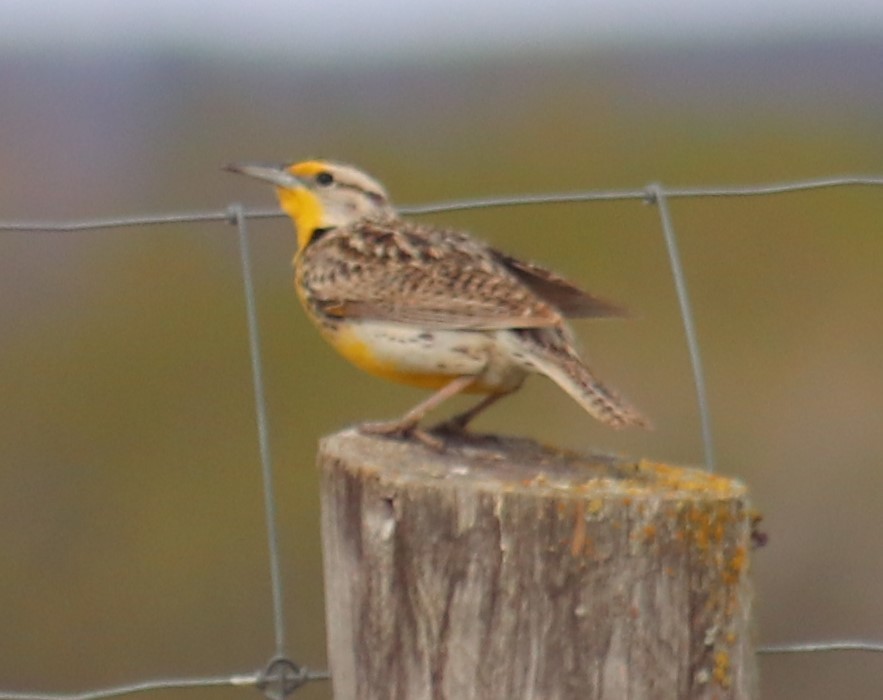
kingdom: Animalia
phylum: Chordata
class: Aves
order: Passeriformes
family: Icteridae
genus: Sturnella
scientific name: Sturnella neglecta
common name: Western meadowlark
